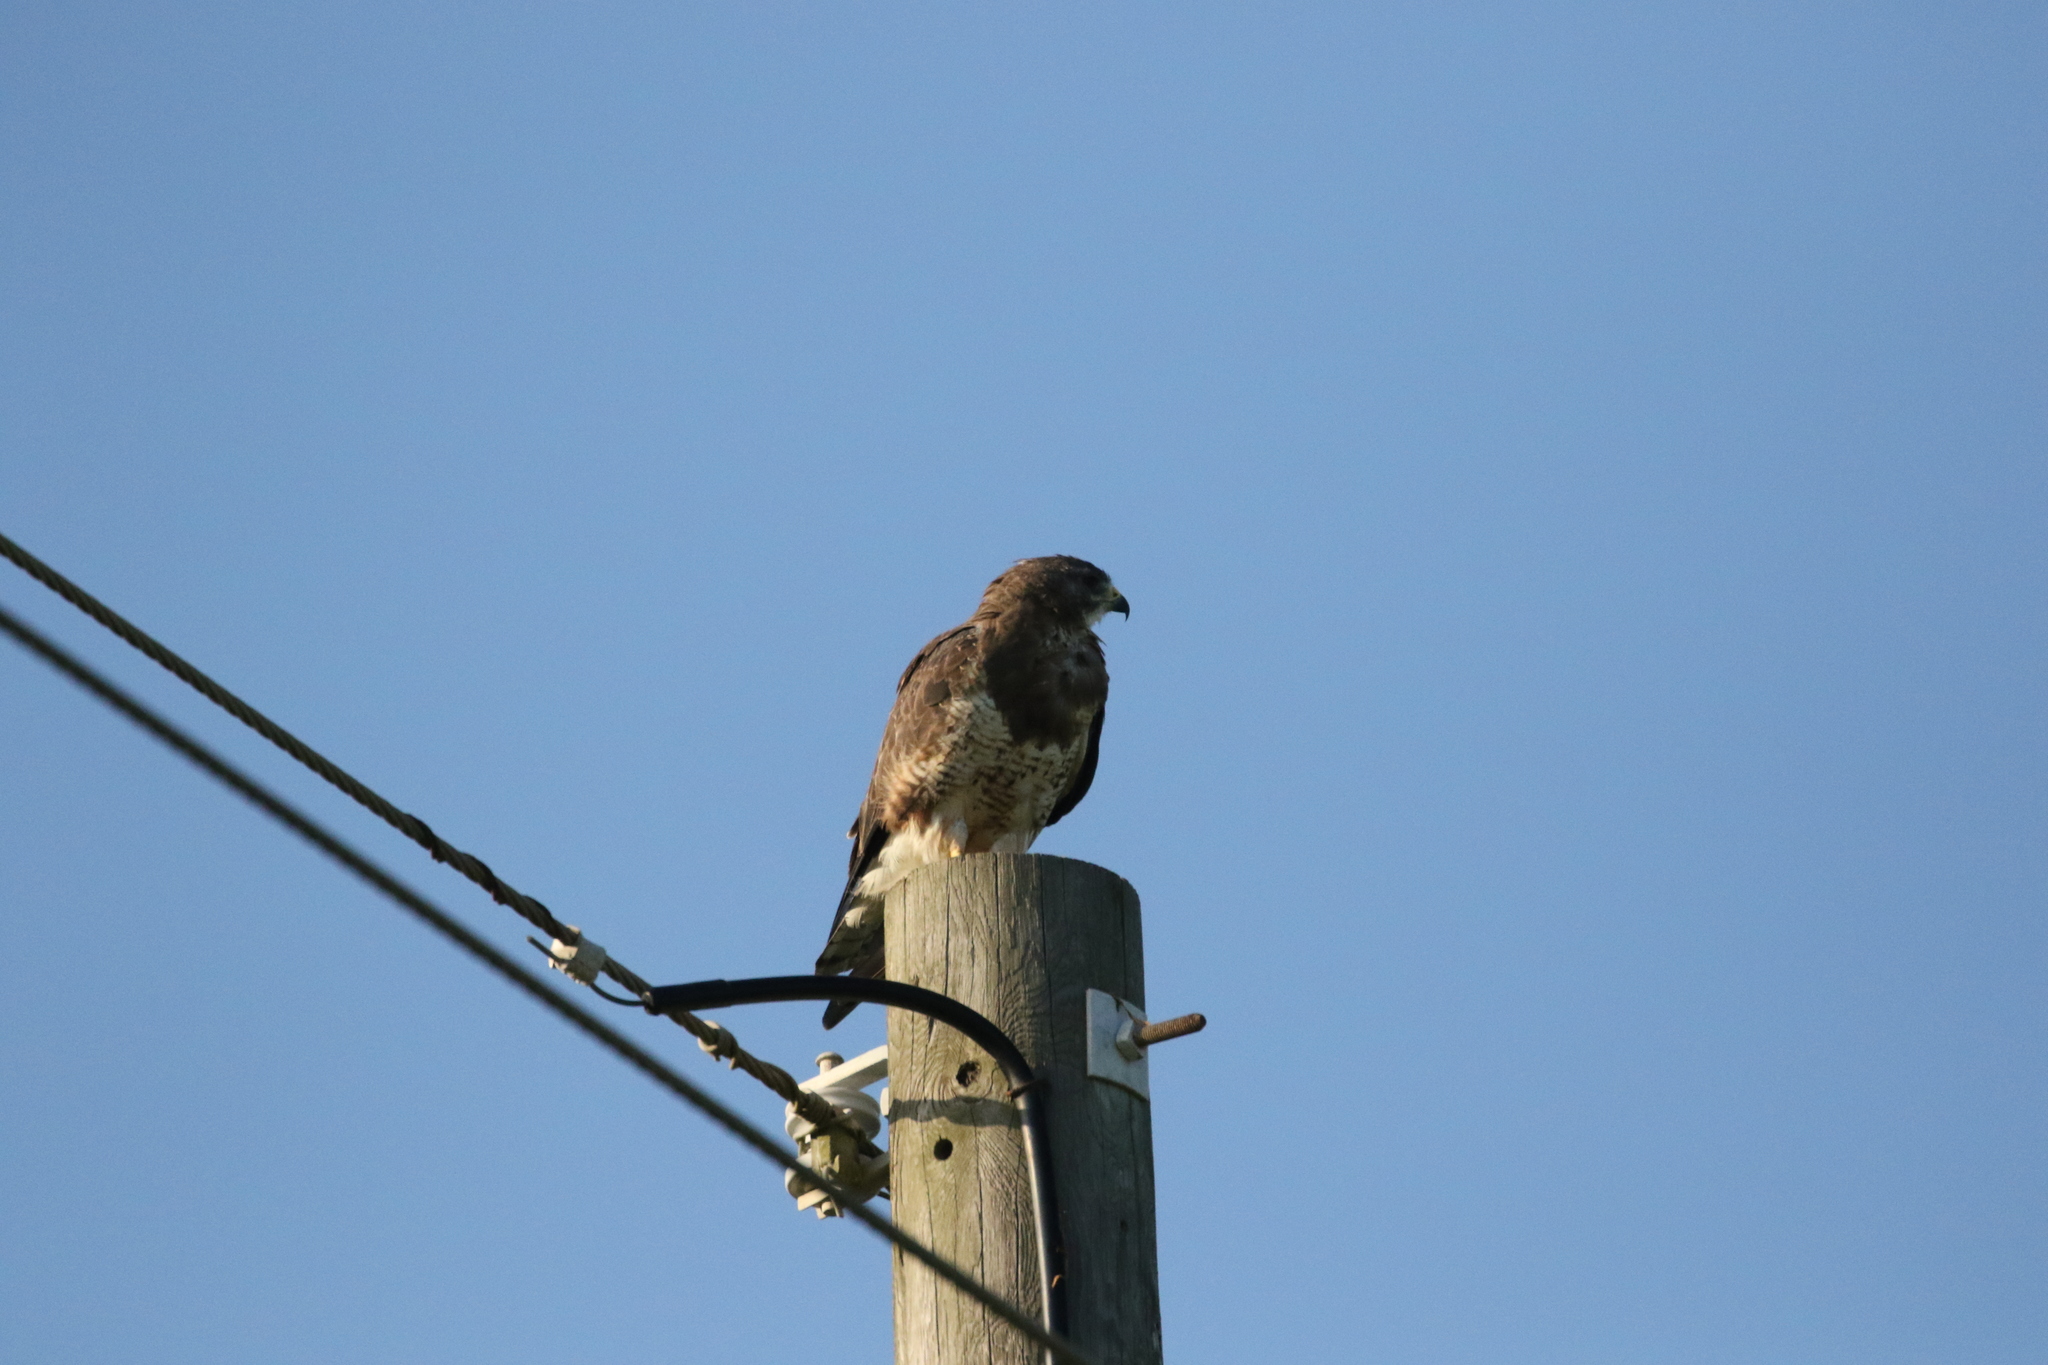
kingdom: Animalia
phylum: Chordata
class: Aves
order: Accipitriformes
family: Accipitridae
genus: Buteo
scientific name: Buteo swainsoni
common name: Swainson's hawk
